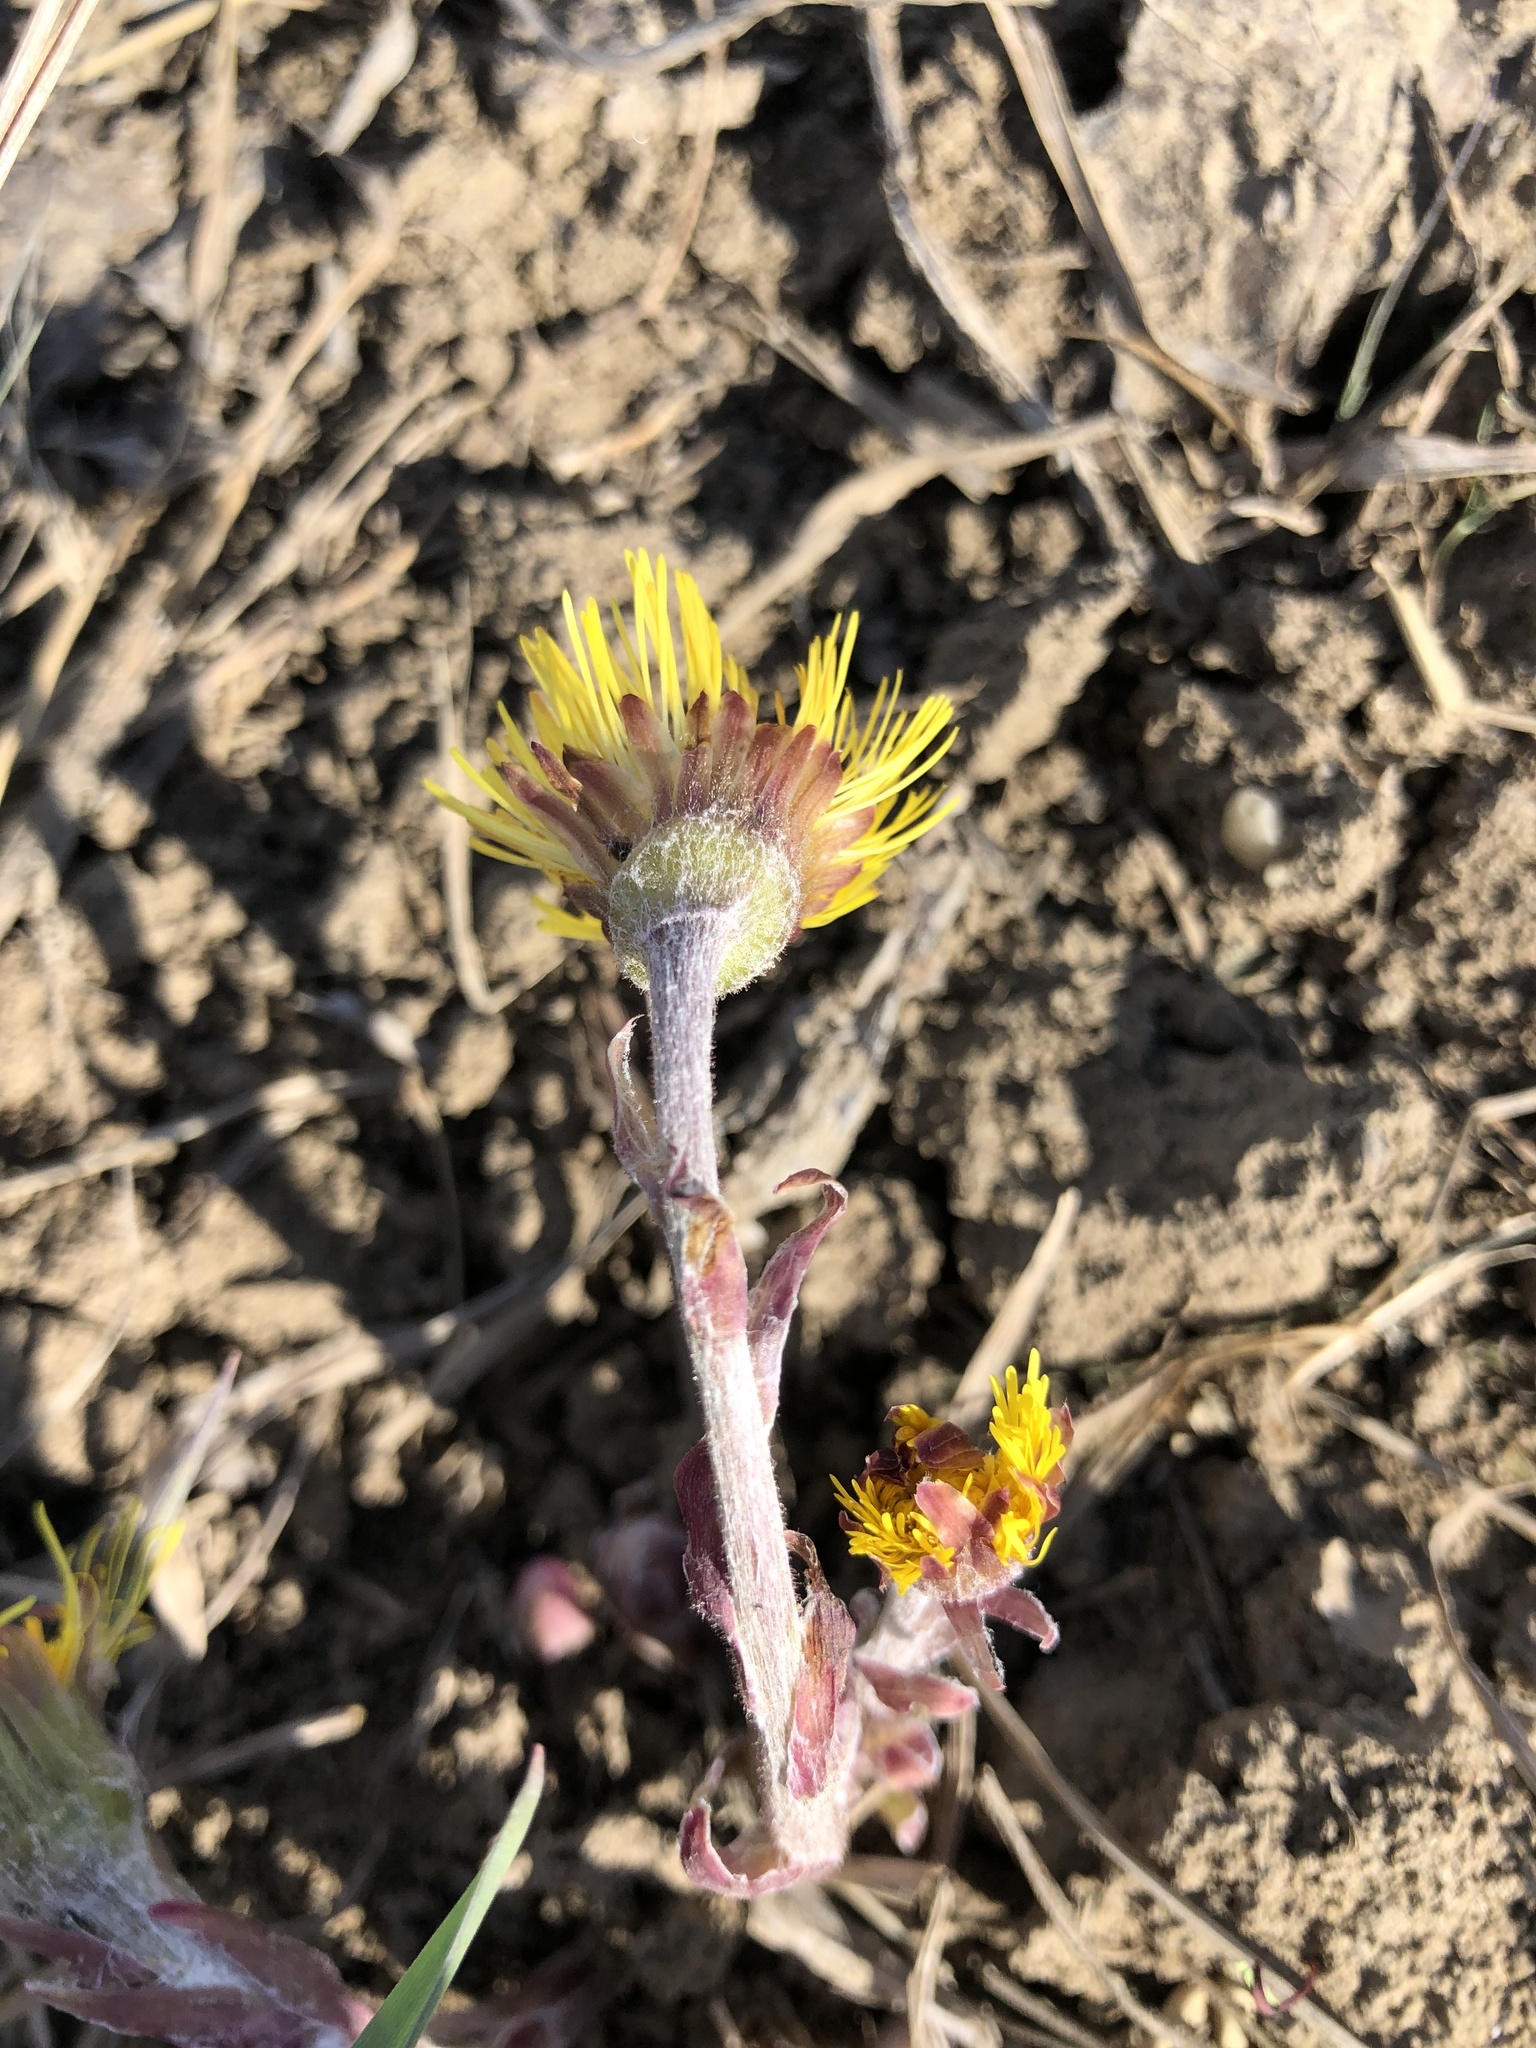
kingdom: Plantae
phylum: Tracheophyta
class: Magnoliopsida
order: Asterales
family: Asteraceae
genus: Tussilago
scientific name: Tussilago farfara
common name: Coltsfoot
